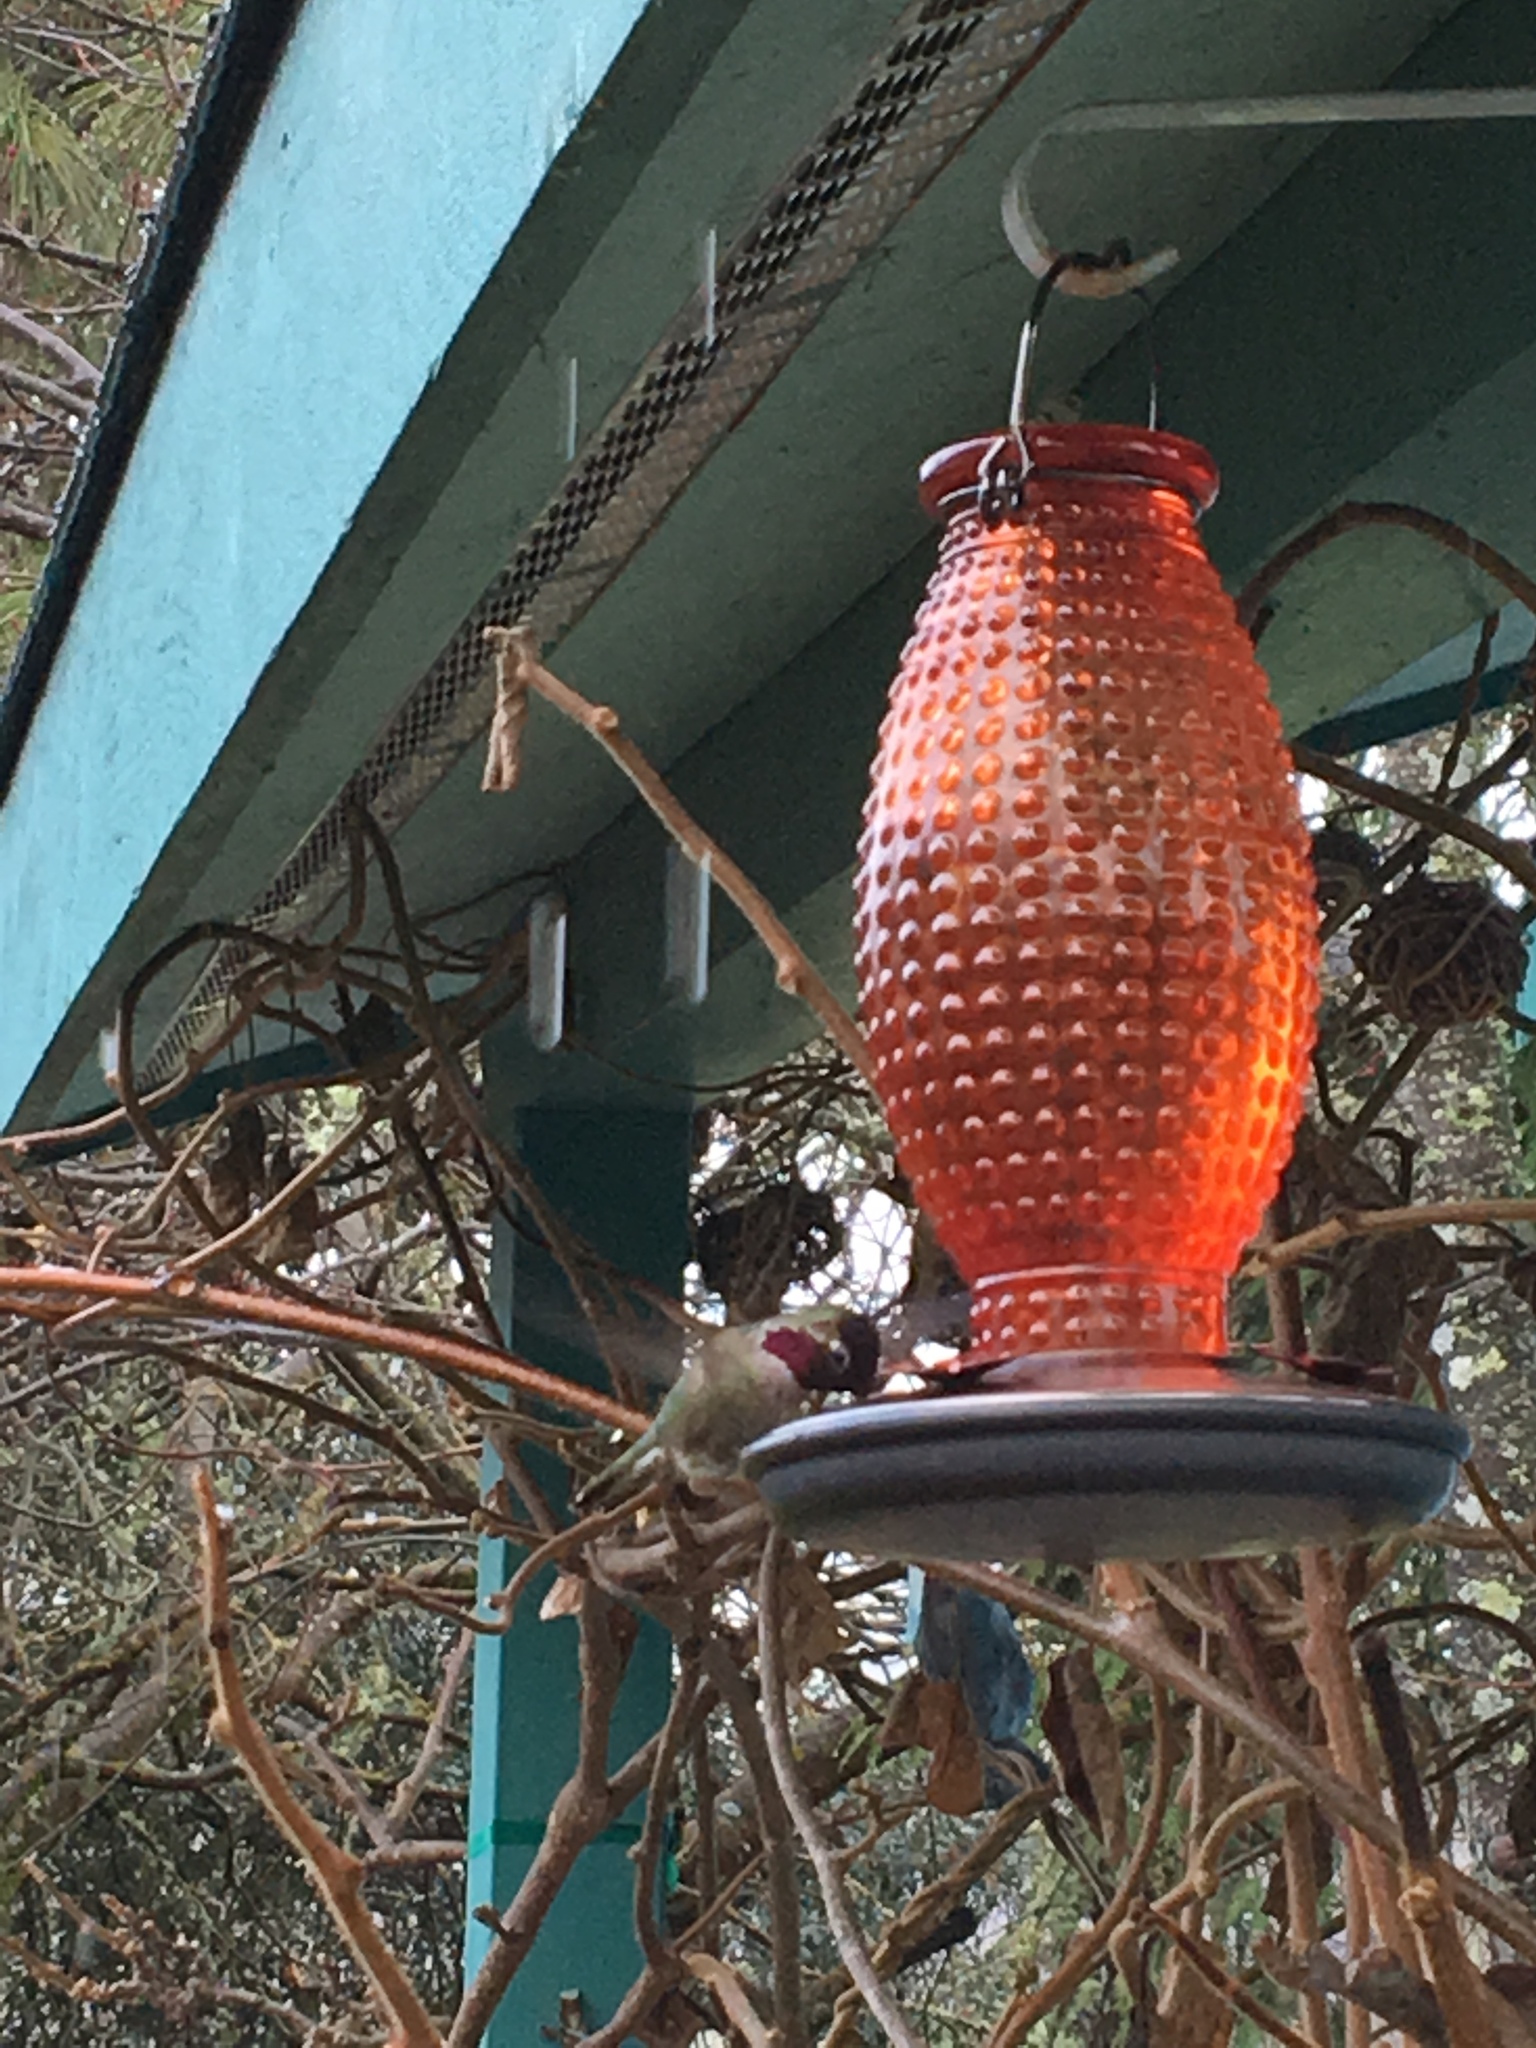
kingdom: Animalia
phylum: Chordata
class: Aves
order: Apodiformes
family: Trochilidae
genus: Calypte
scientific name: Calypte anna
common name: Anna's hummingbird
